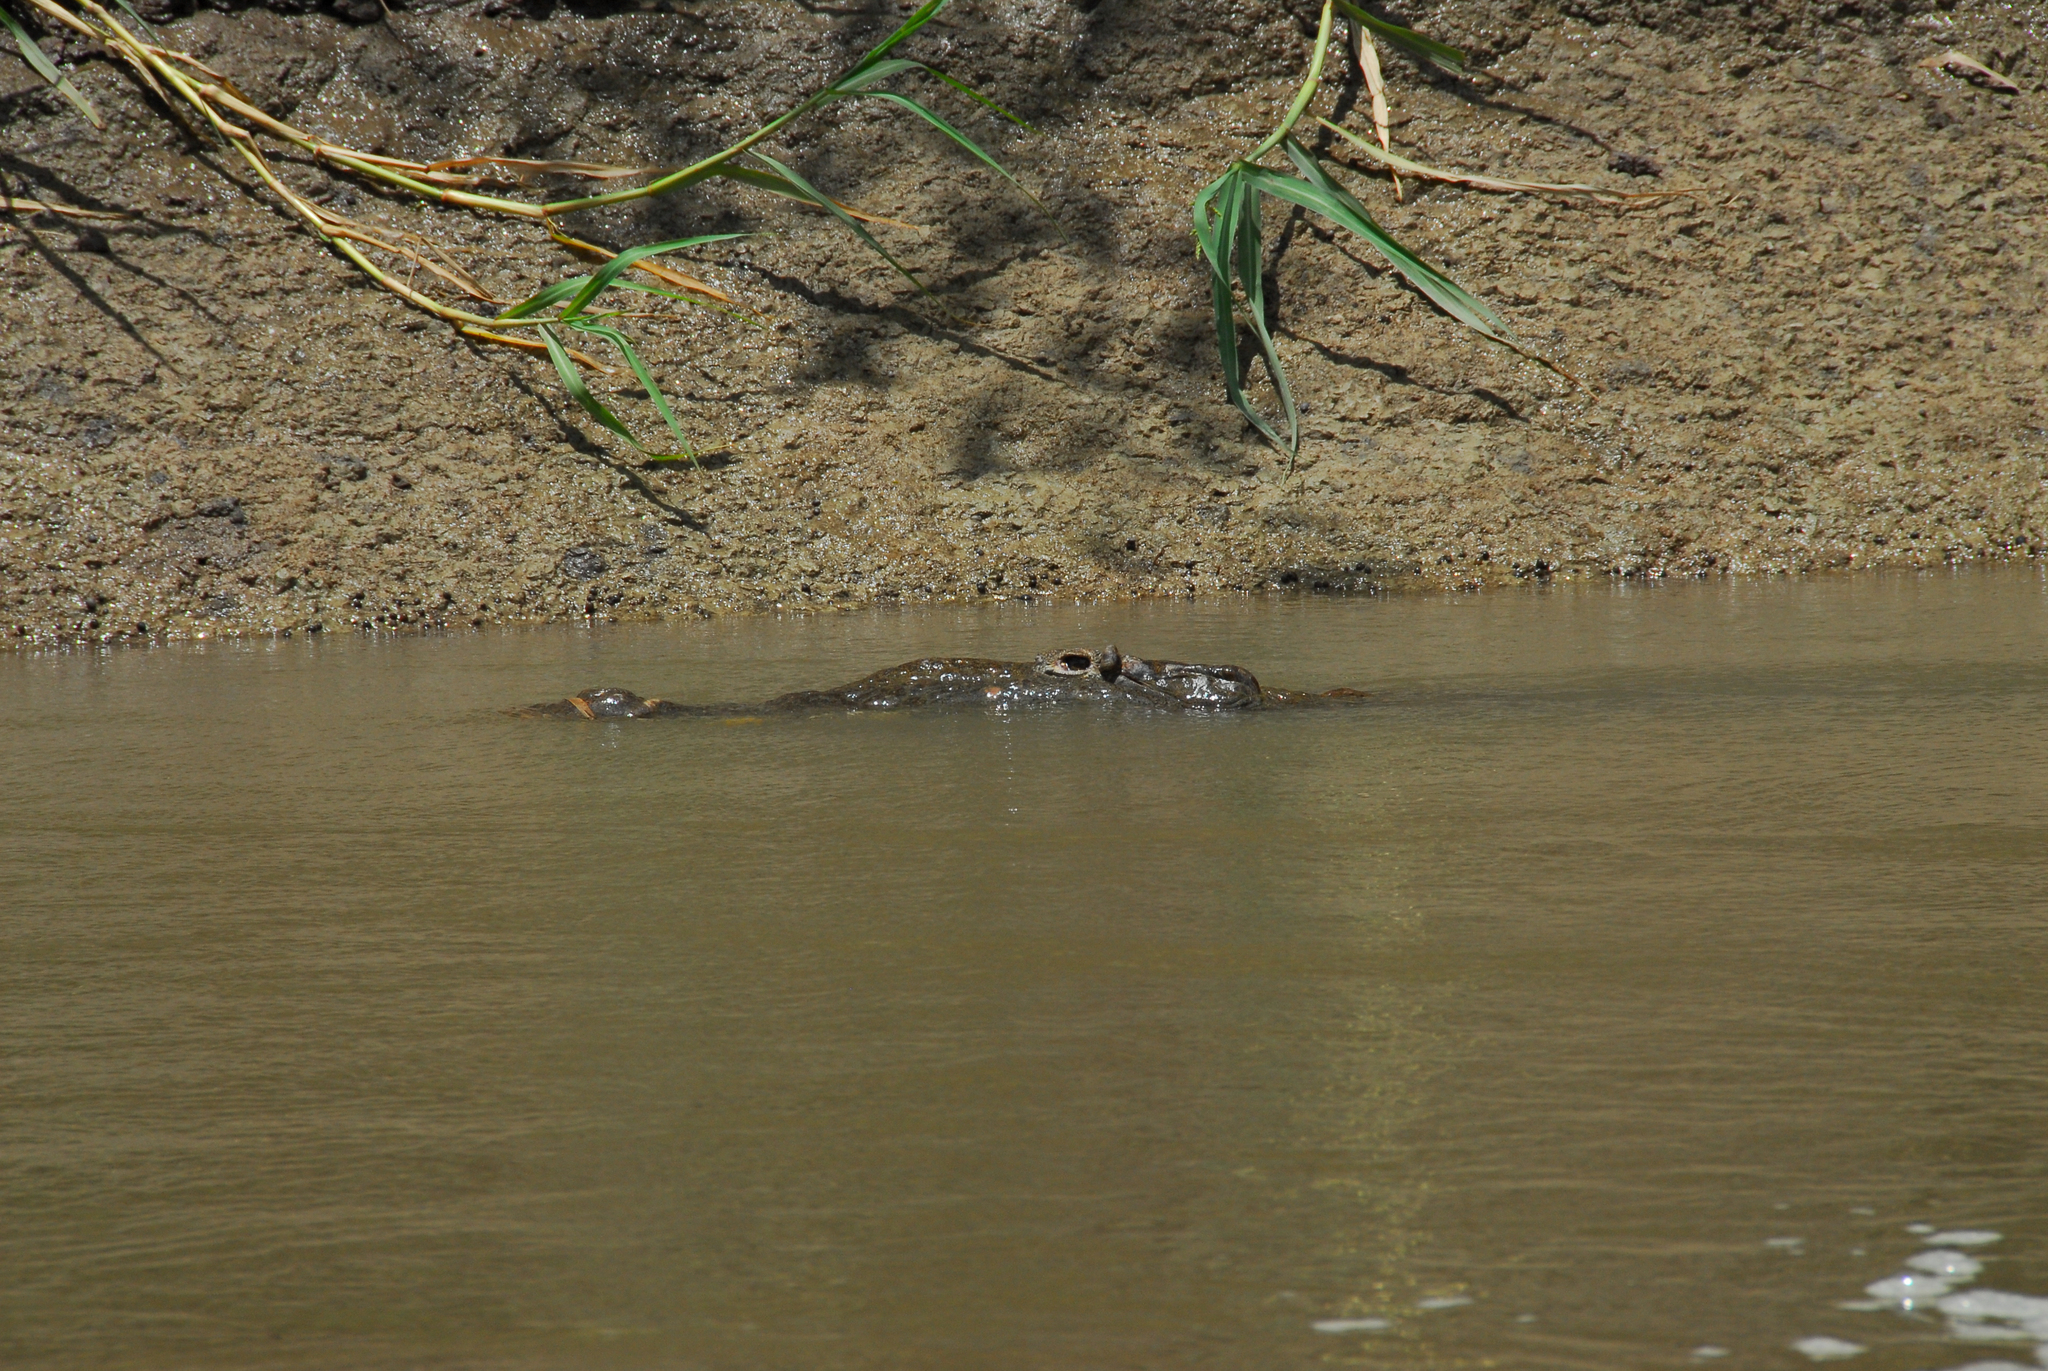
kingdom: Animalia
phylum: Chordata
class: Crocodylia
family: Crocodylidae
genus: Crocodylus
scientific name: Crocodylus acutus
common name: American crocodile
